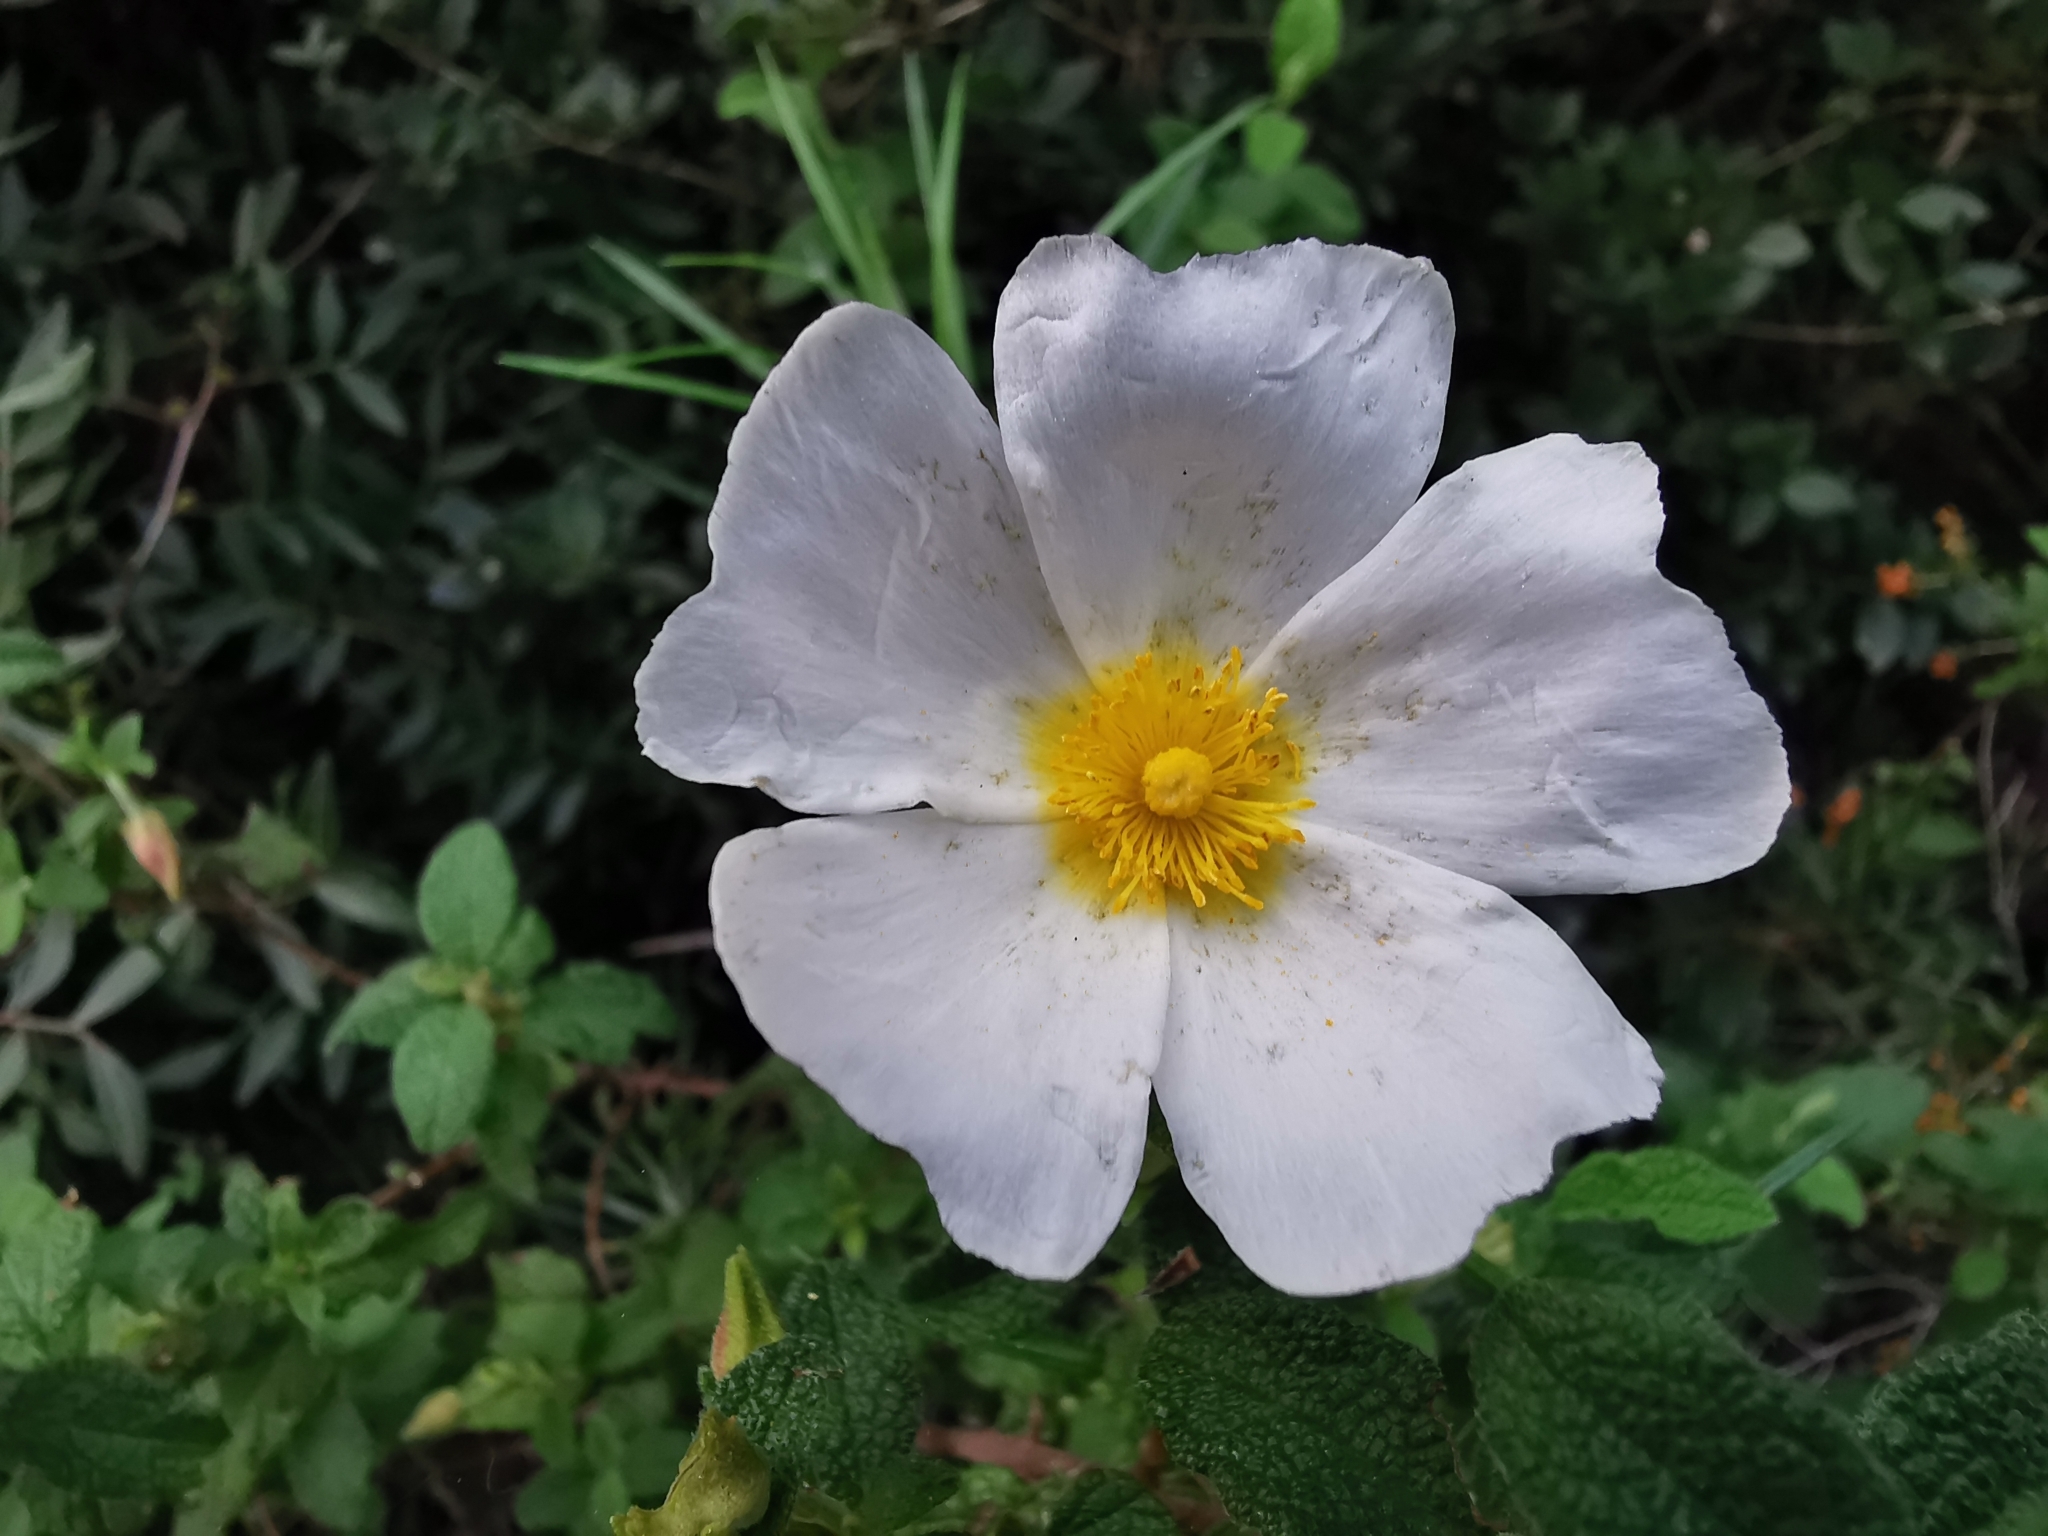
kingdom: Plantae
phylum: Tracheophyta
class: Magnoliopsida
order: Malvales
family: Cistaceae
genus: Cistus
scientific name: Cistus salviifolius
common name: Salvia cistus
